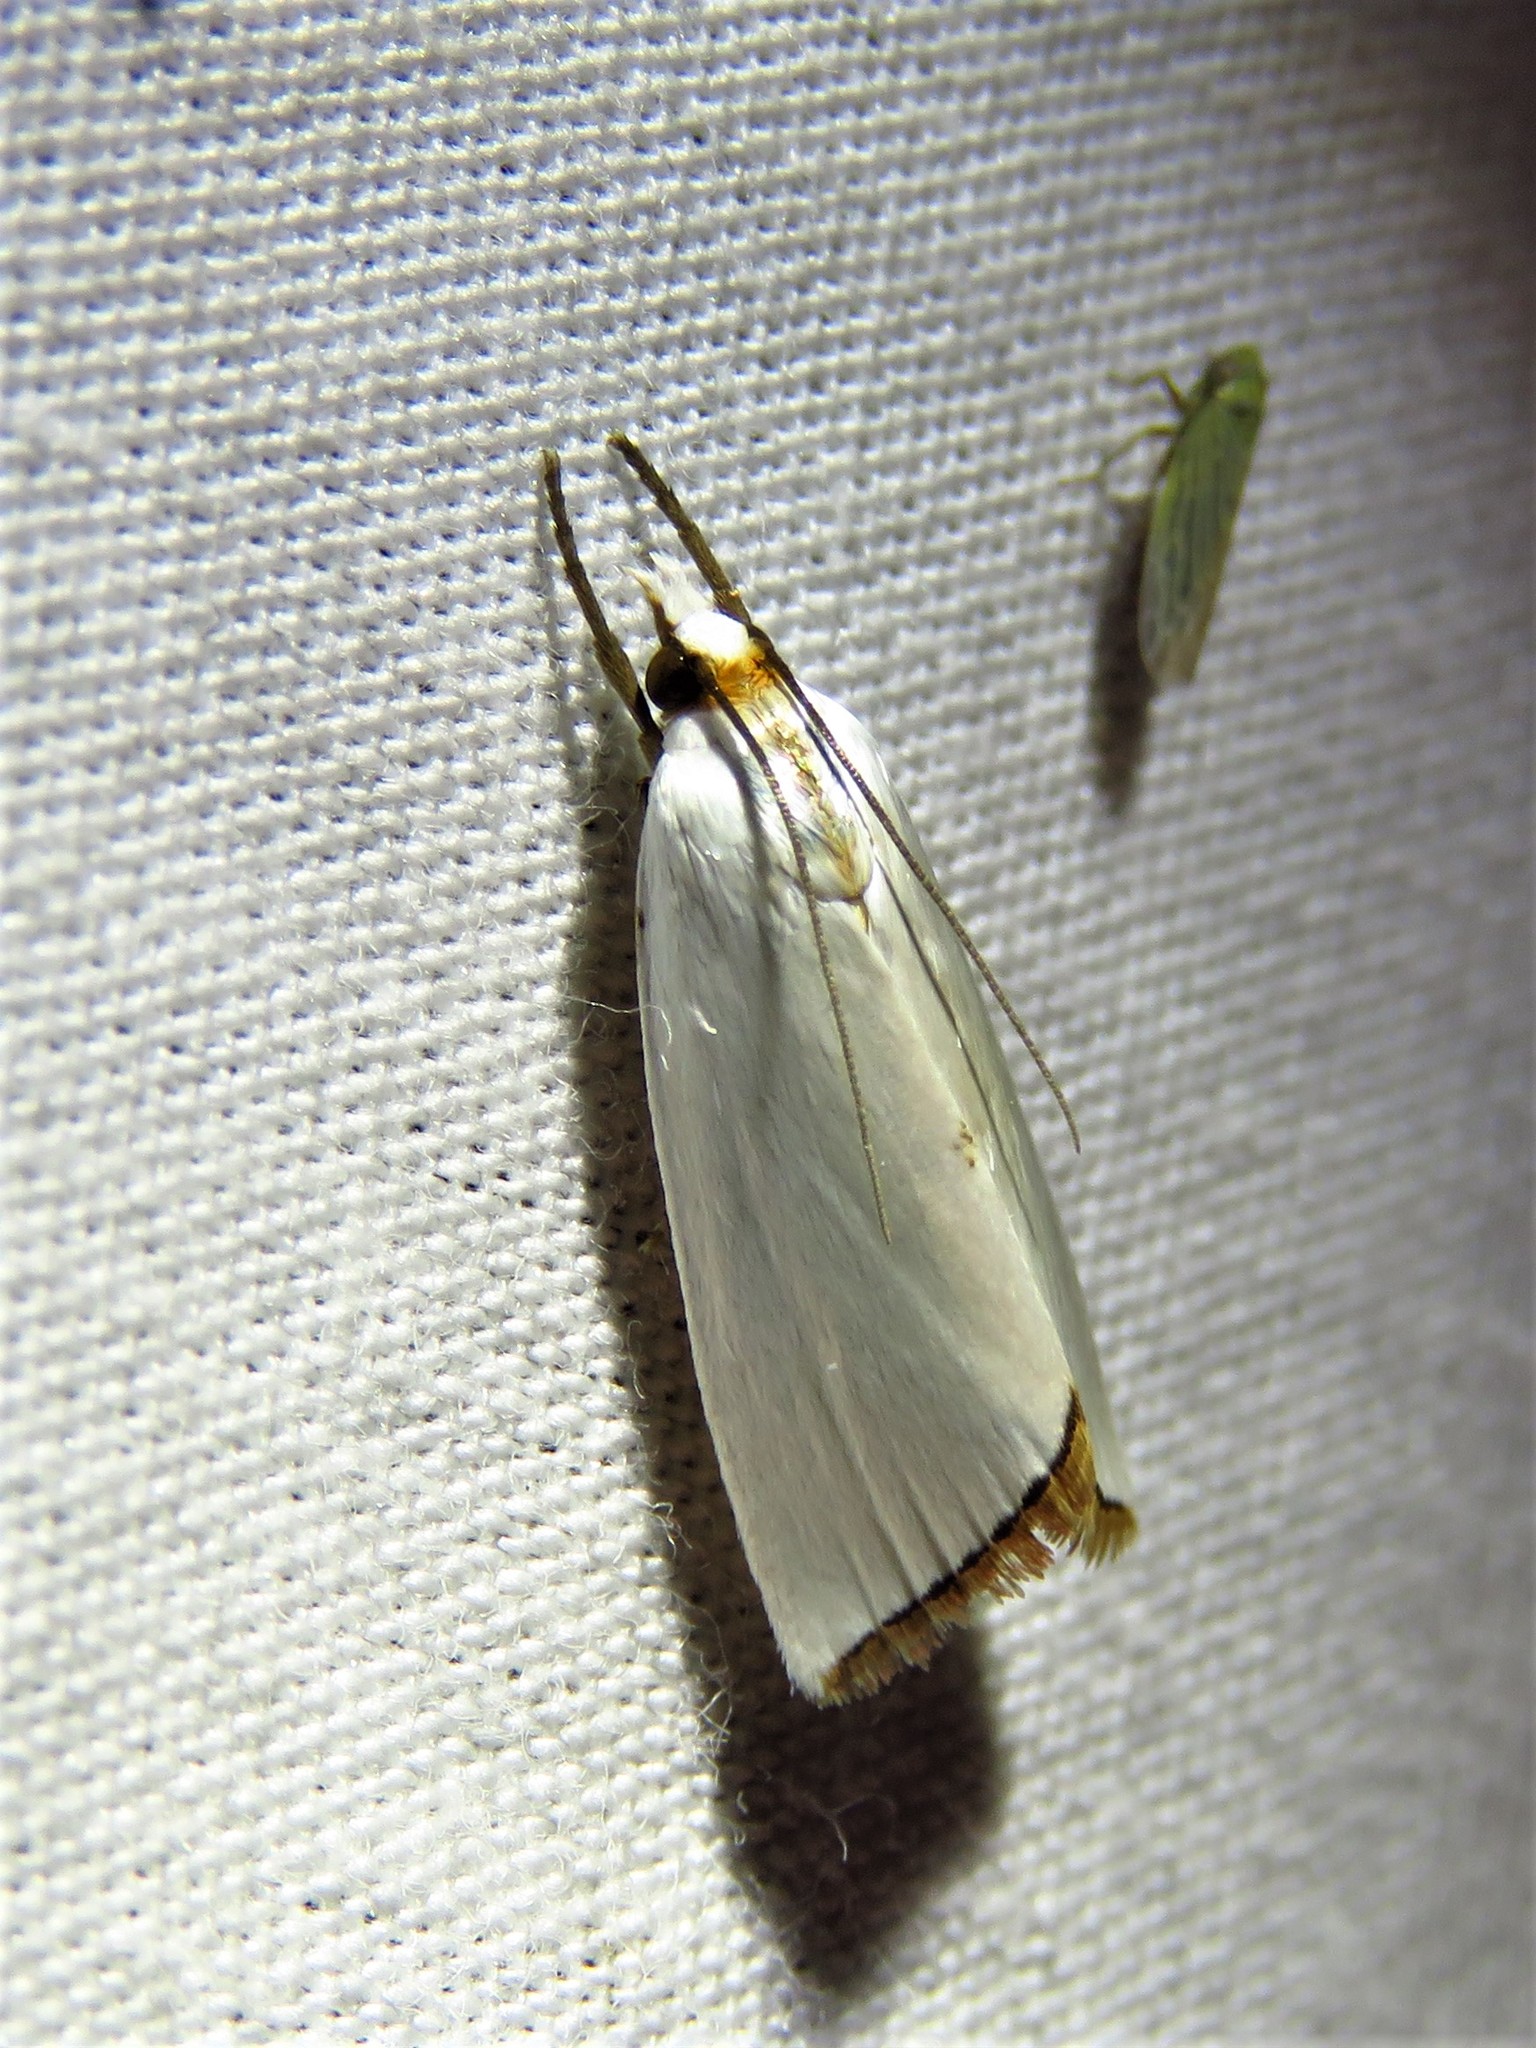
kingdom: Animalia
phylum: Arthropoda
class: Insecta
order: Lepidoptera
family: Crambidae
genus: Argyria
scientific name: Argyria nivalis
